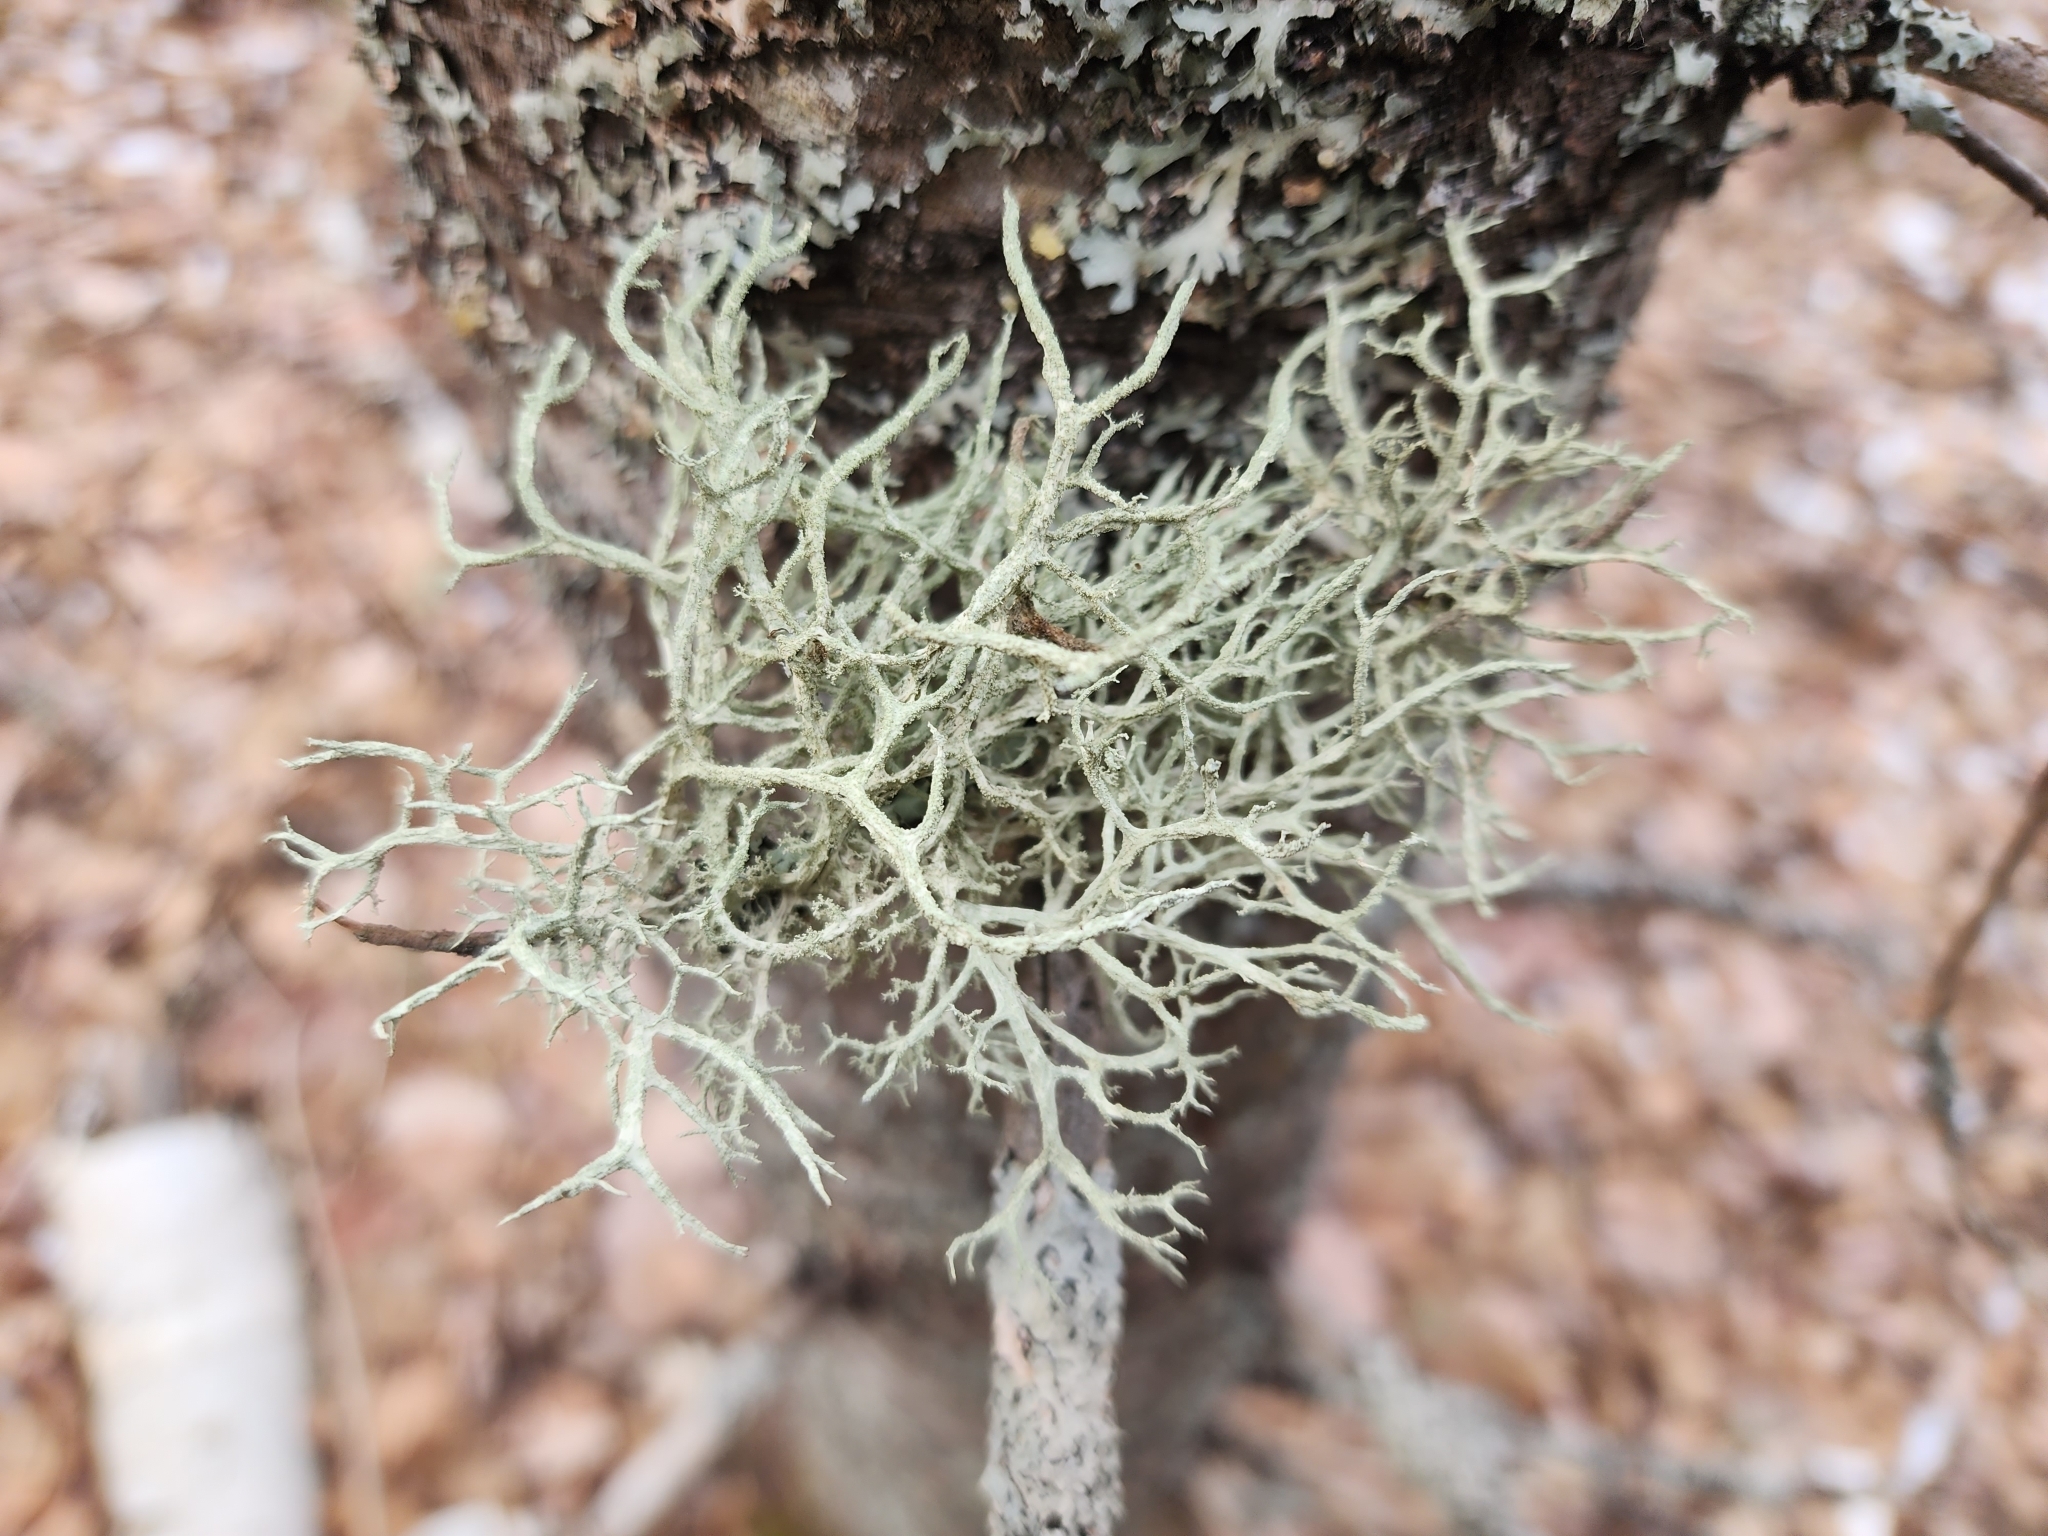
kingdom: Fungi
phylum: Ascomycota
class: Lecanoromycetes
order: Lecanorales
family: Parmeliaceae
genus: Evernia
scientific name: Evernia mesomorpha
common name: Boreal oak moss lichen
